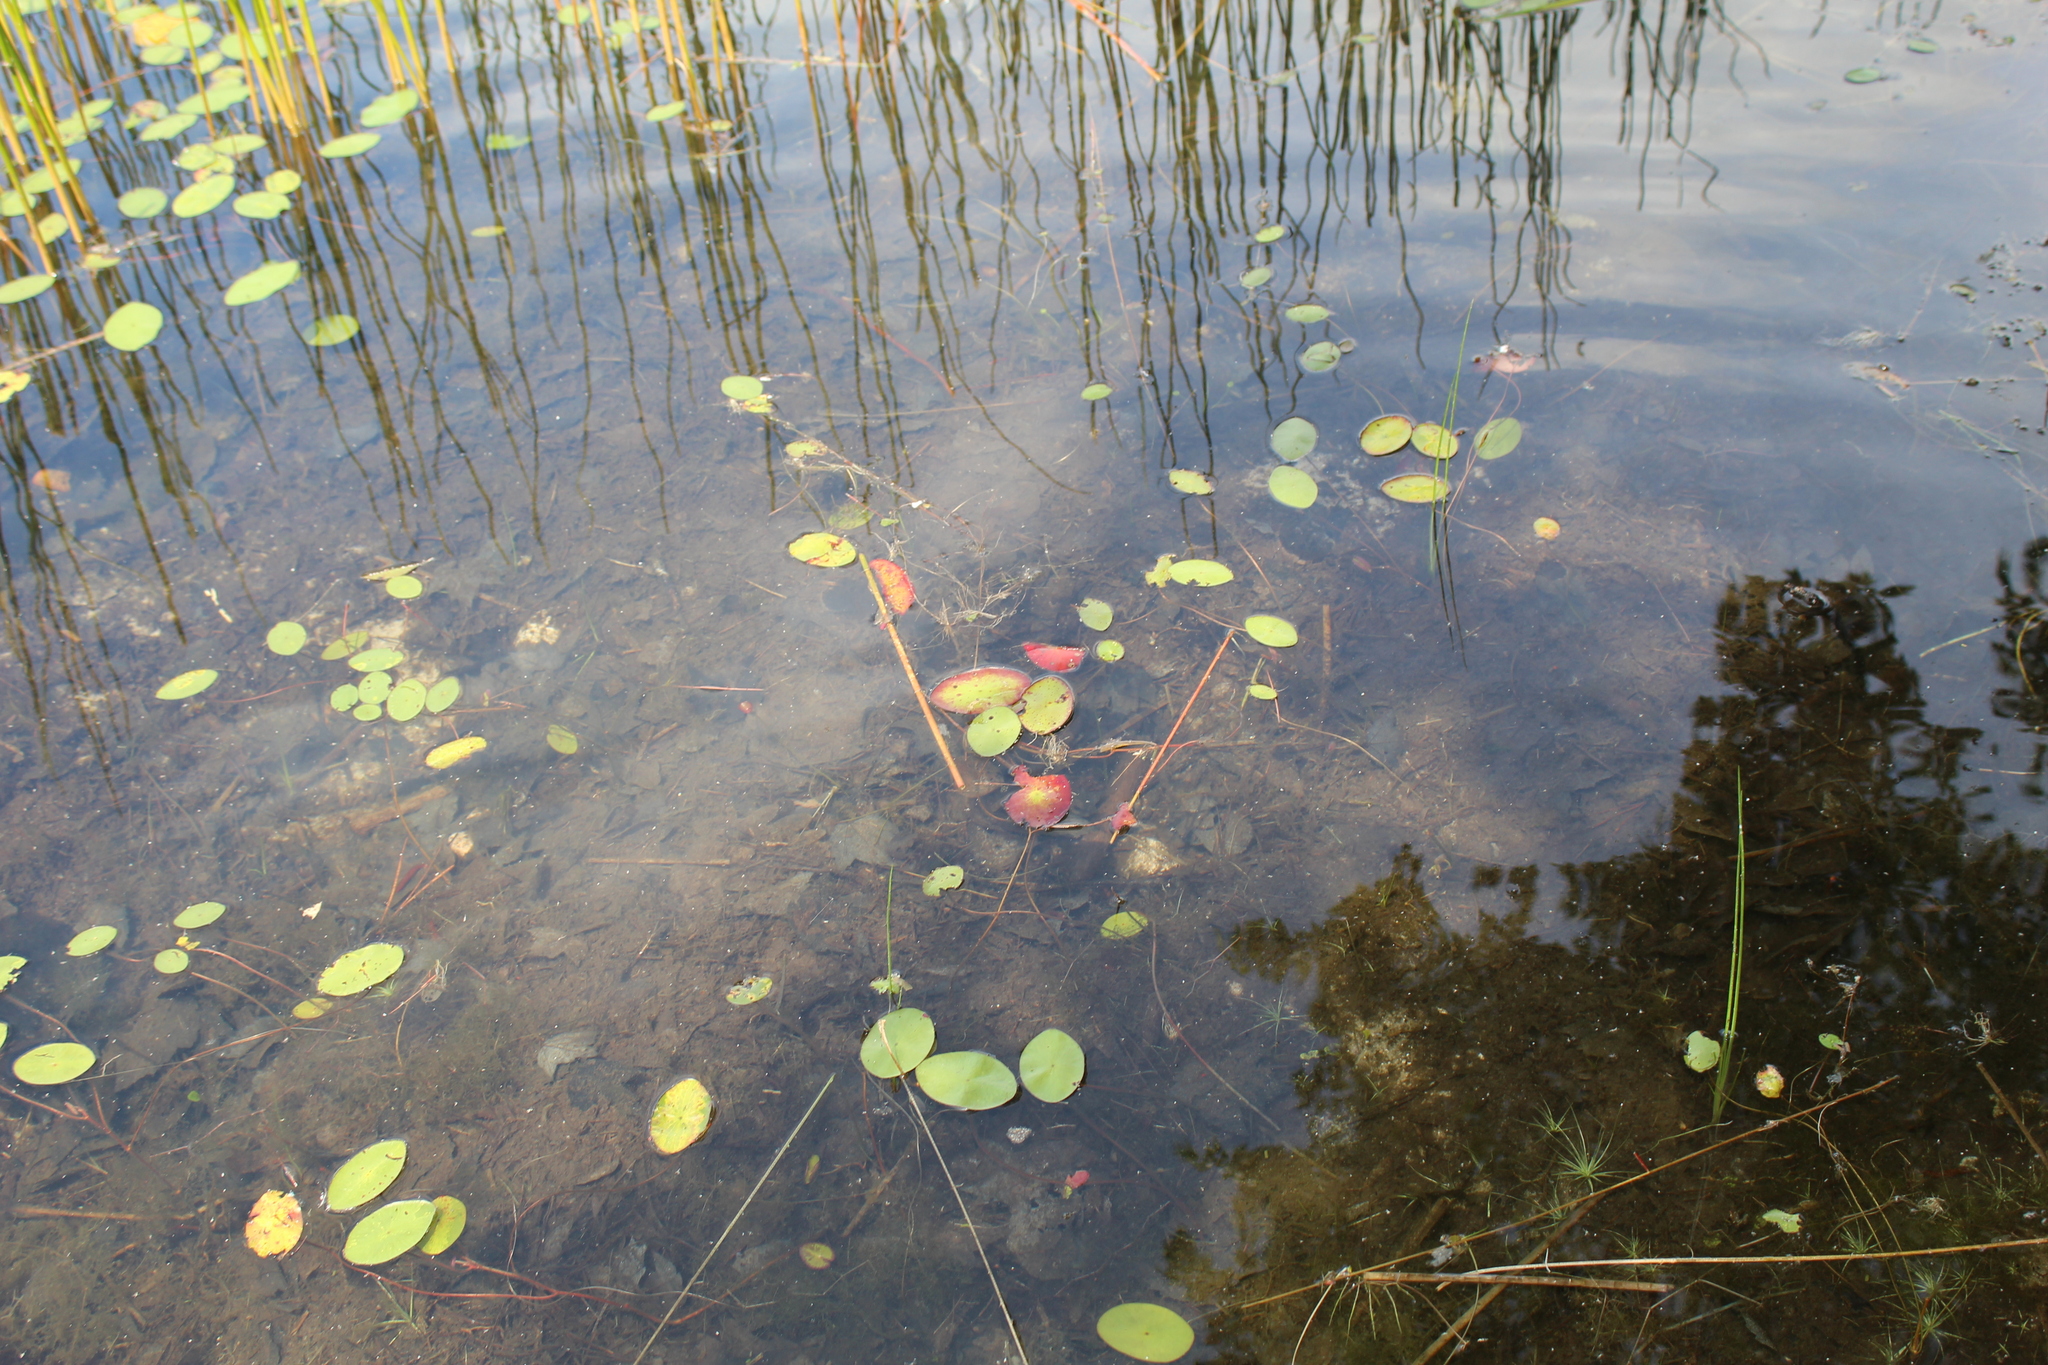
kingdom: Plantae
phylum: Tracheophyta
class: Magnoliopsida
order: Nymphaeales
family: Cabombaceae
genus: Brasenia
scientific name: Brasenia schreberi
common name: Water-shield
